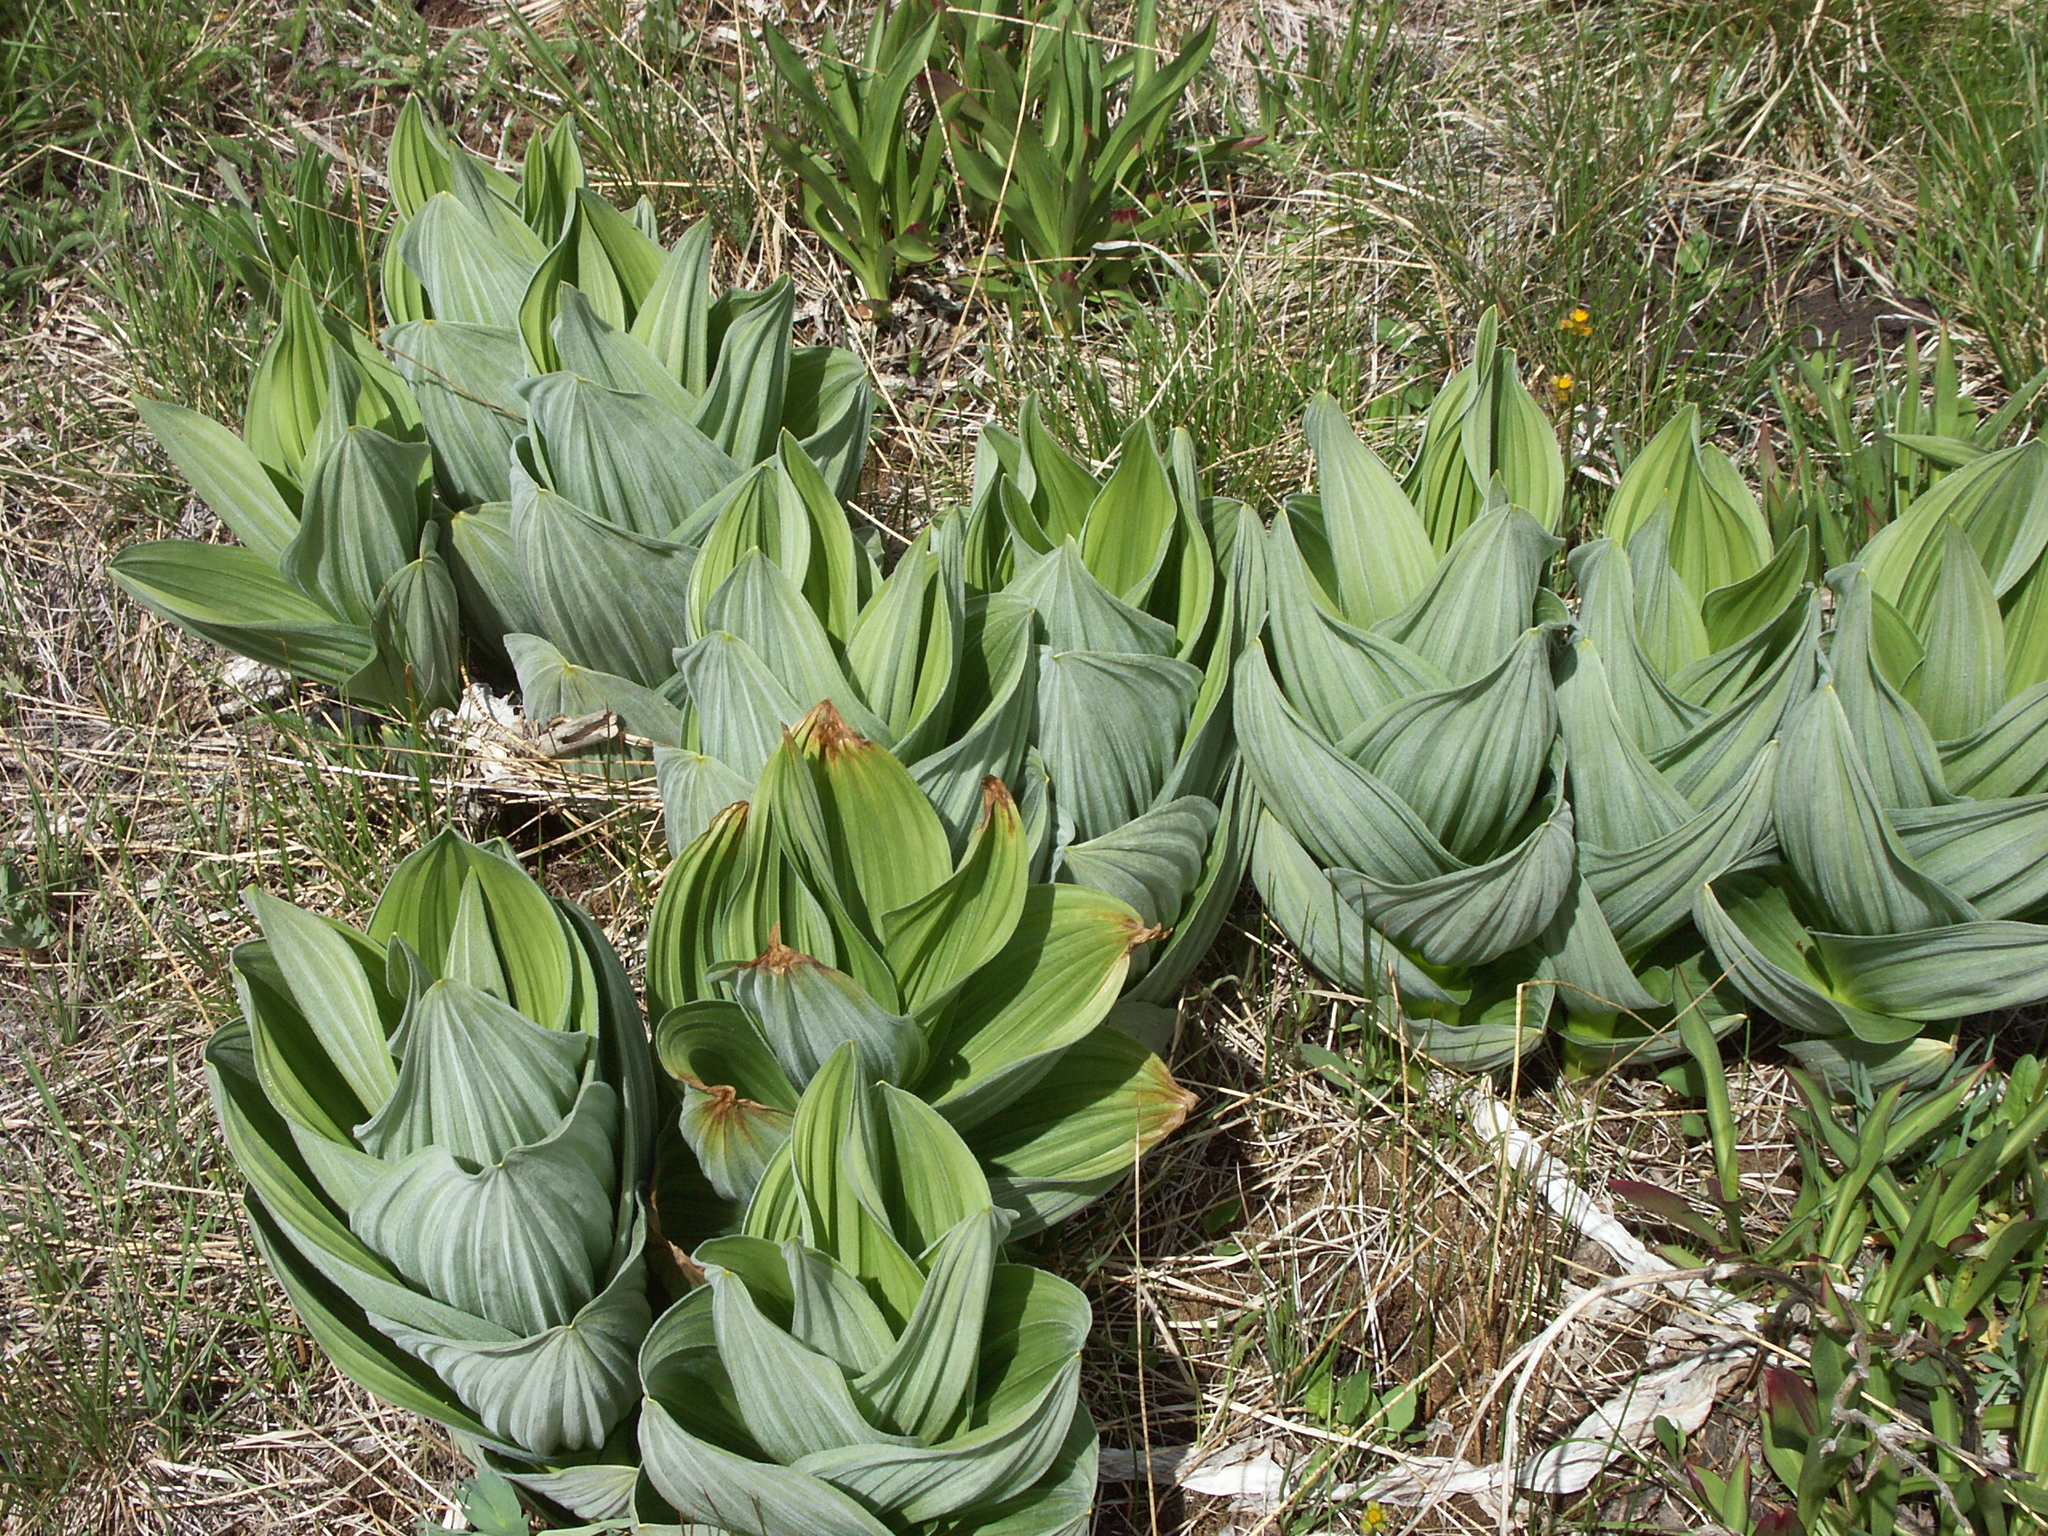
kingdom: Plantae
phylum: Tracheophyta
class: Liliopsida
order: Liliales
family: Melanthiaceae
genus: Veratrum
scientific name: Veratrum californicum
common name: California veratrum
